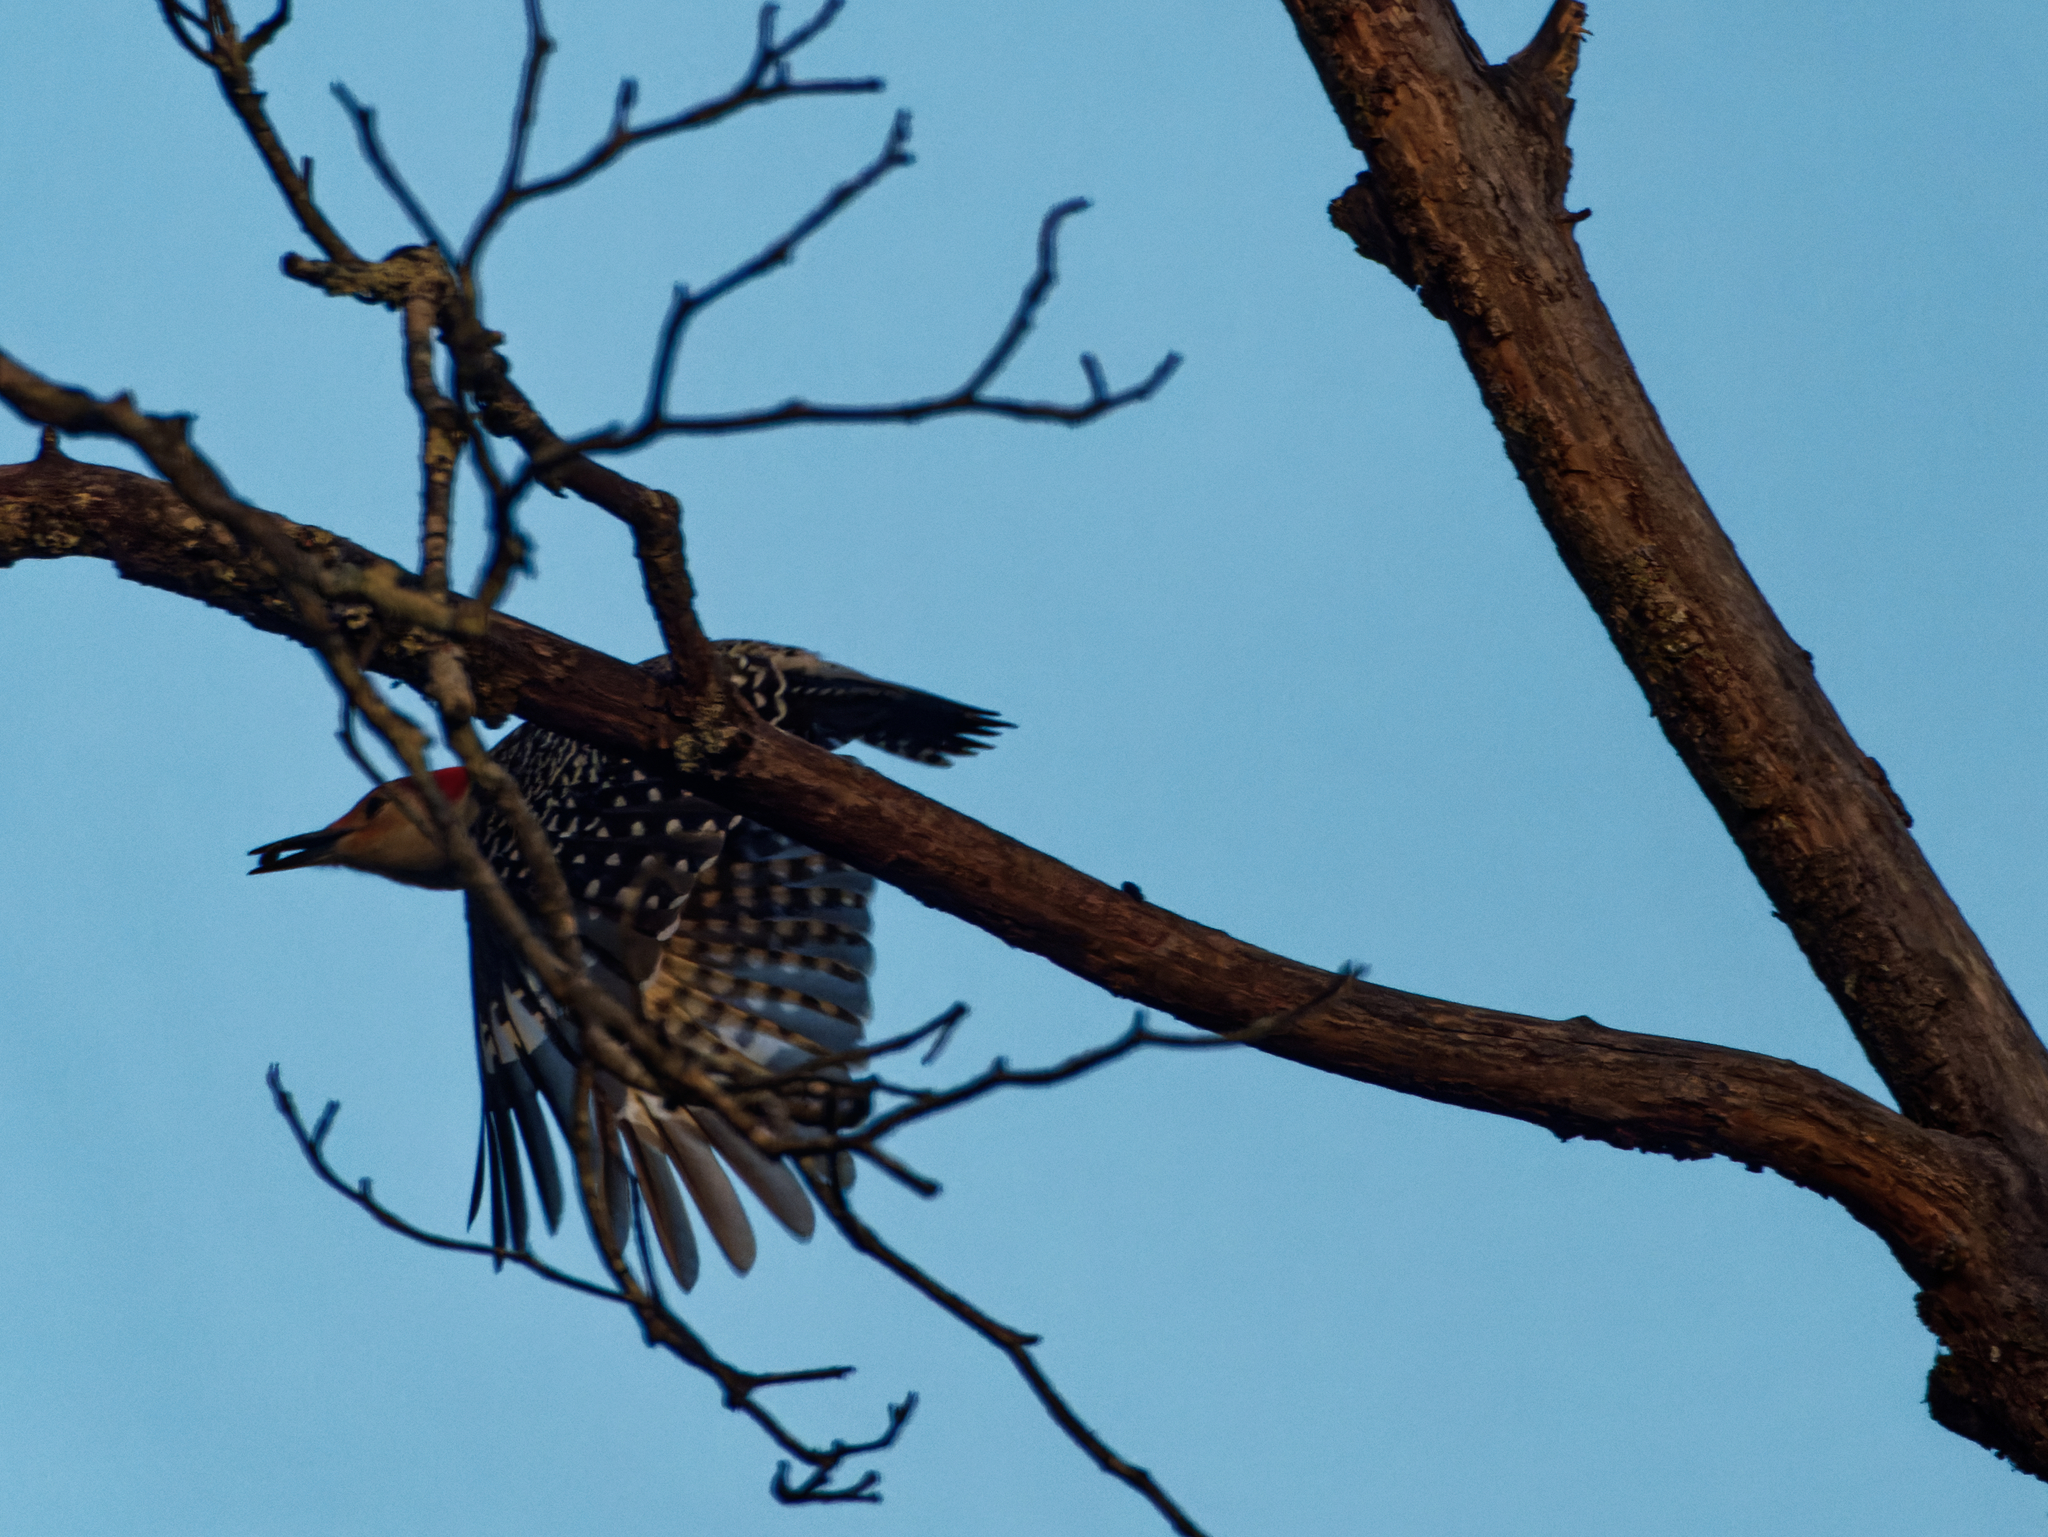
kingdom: Animalia
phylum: Chordata
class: Aves
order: Piciformes
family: Picidae
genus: Melanerpes
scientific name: Melanerpes carolinus
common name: Red-bellied woodpecker
